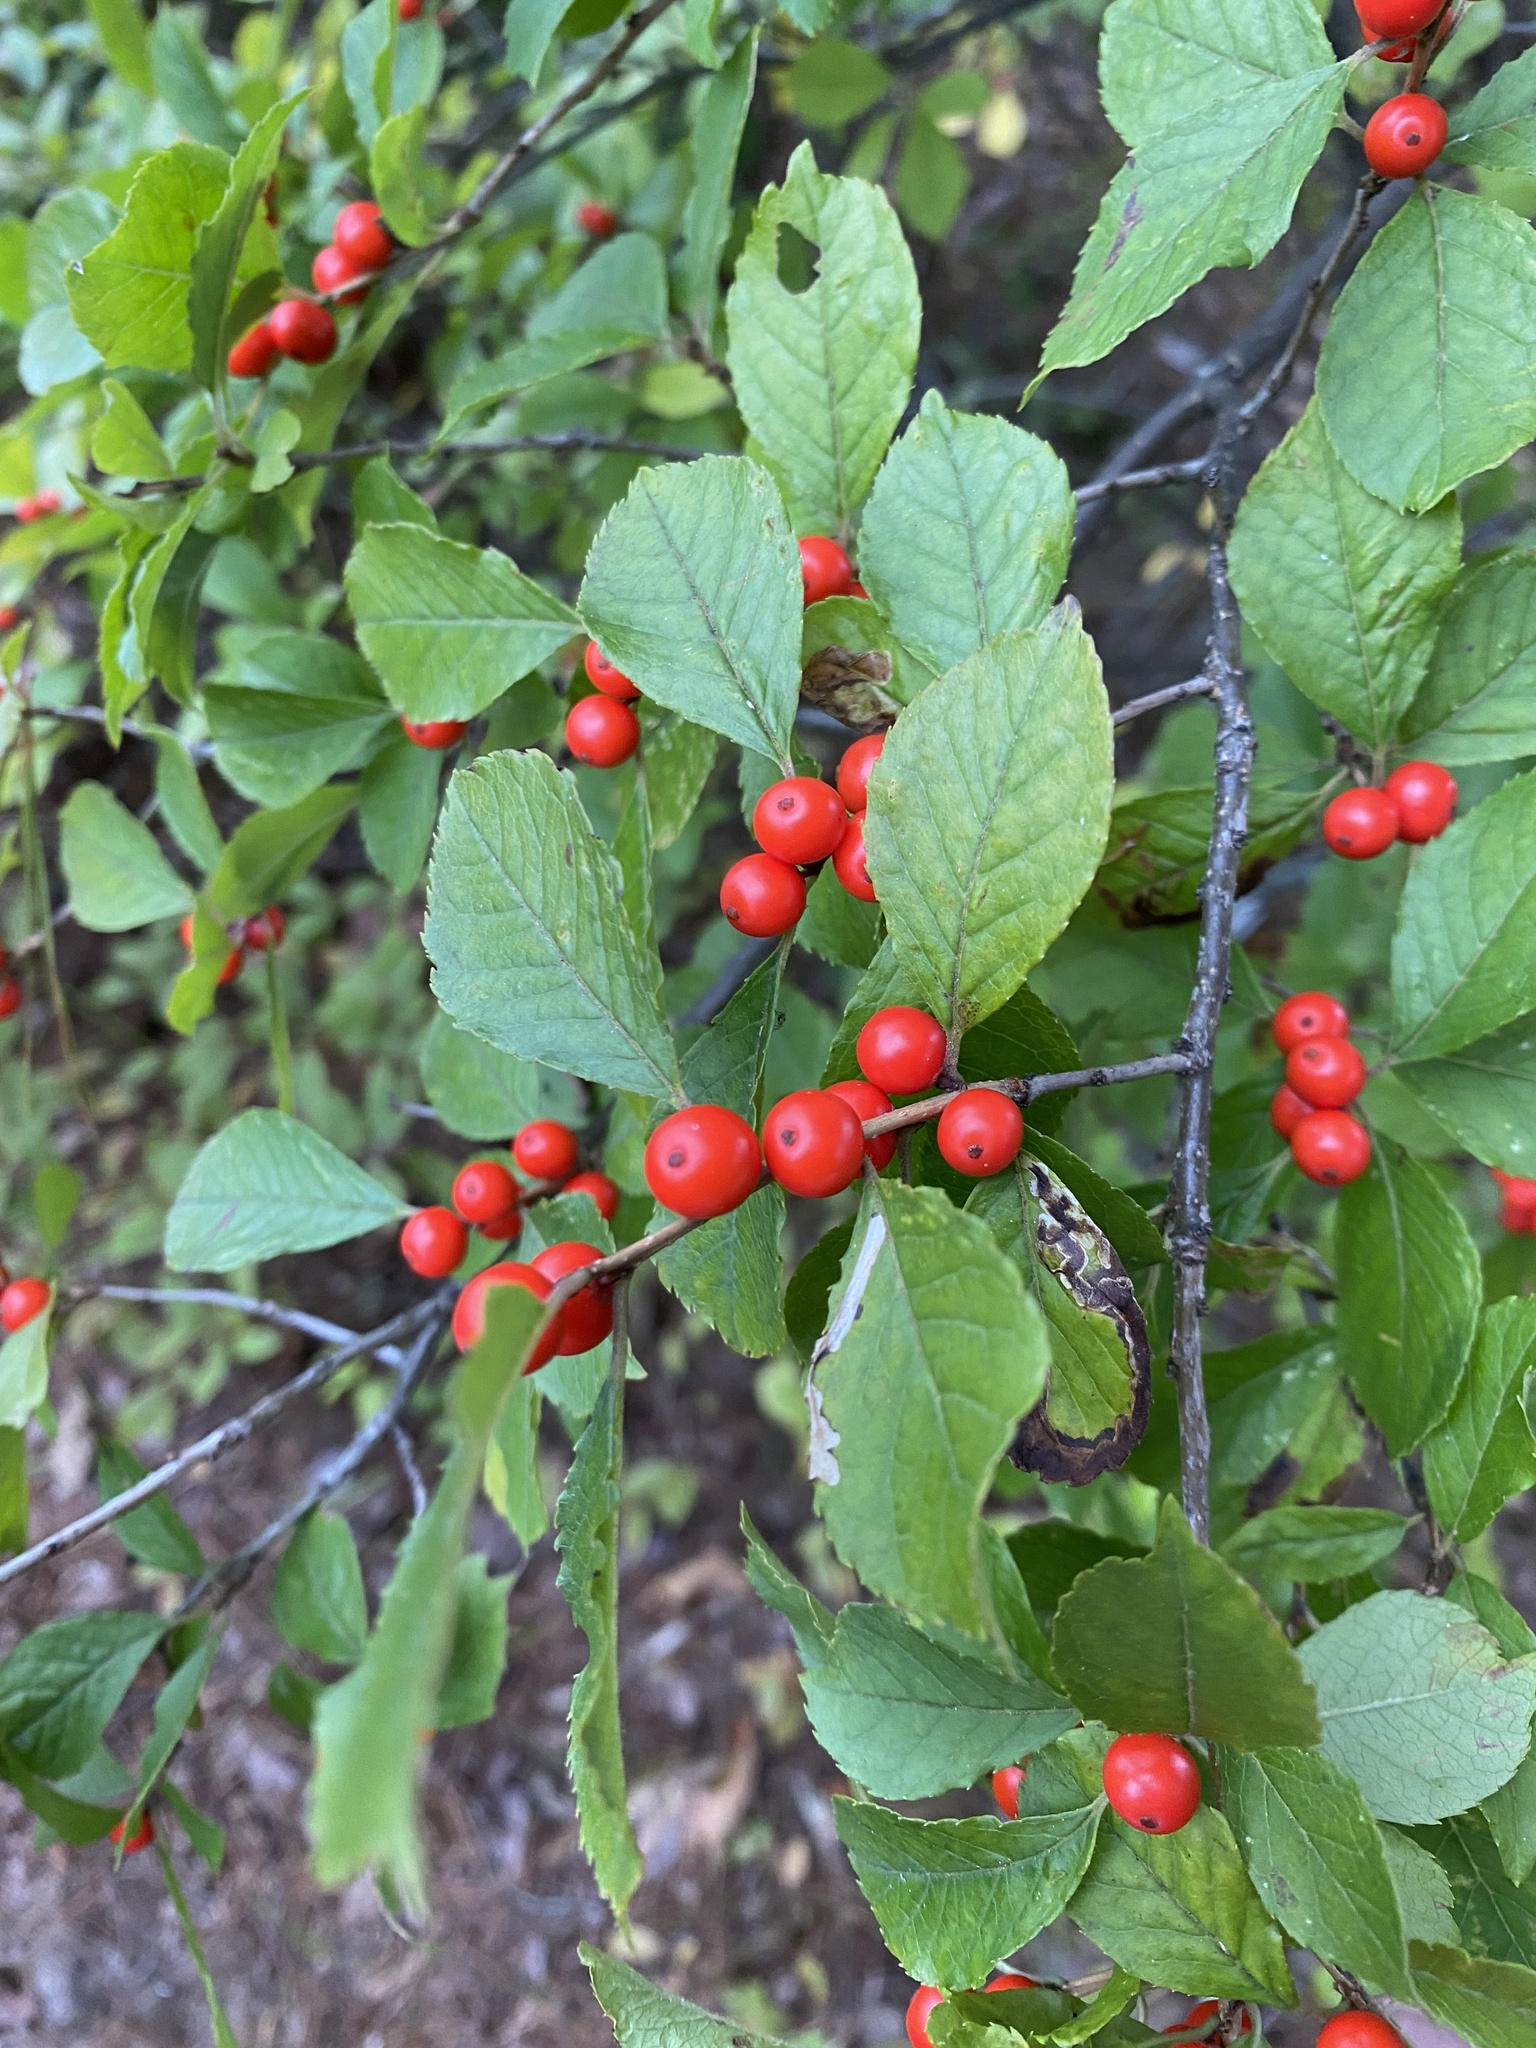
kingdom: Plantae
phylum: Tracheophyta
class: Magnoliopsida
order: Aquifoliales
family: Aquifoliaceae
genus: Ilex
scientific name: Ilex verticillata
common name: Virginia winterberry
